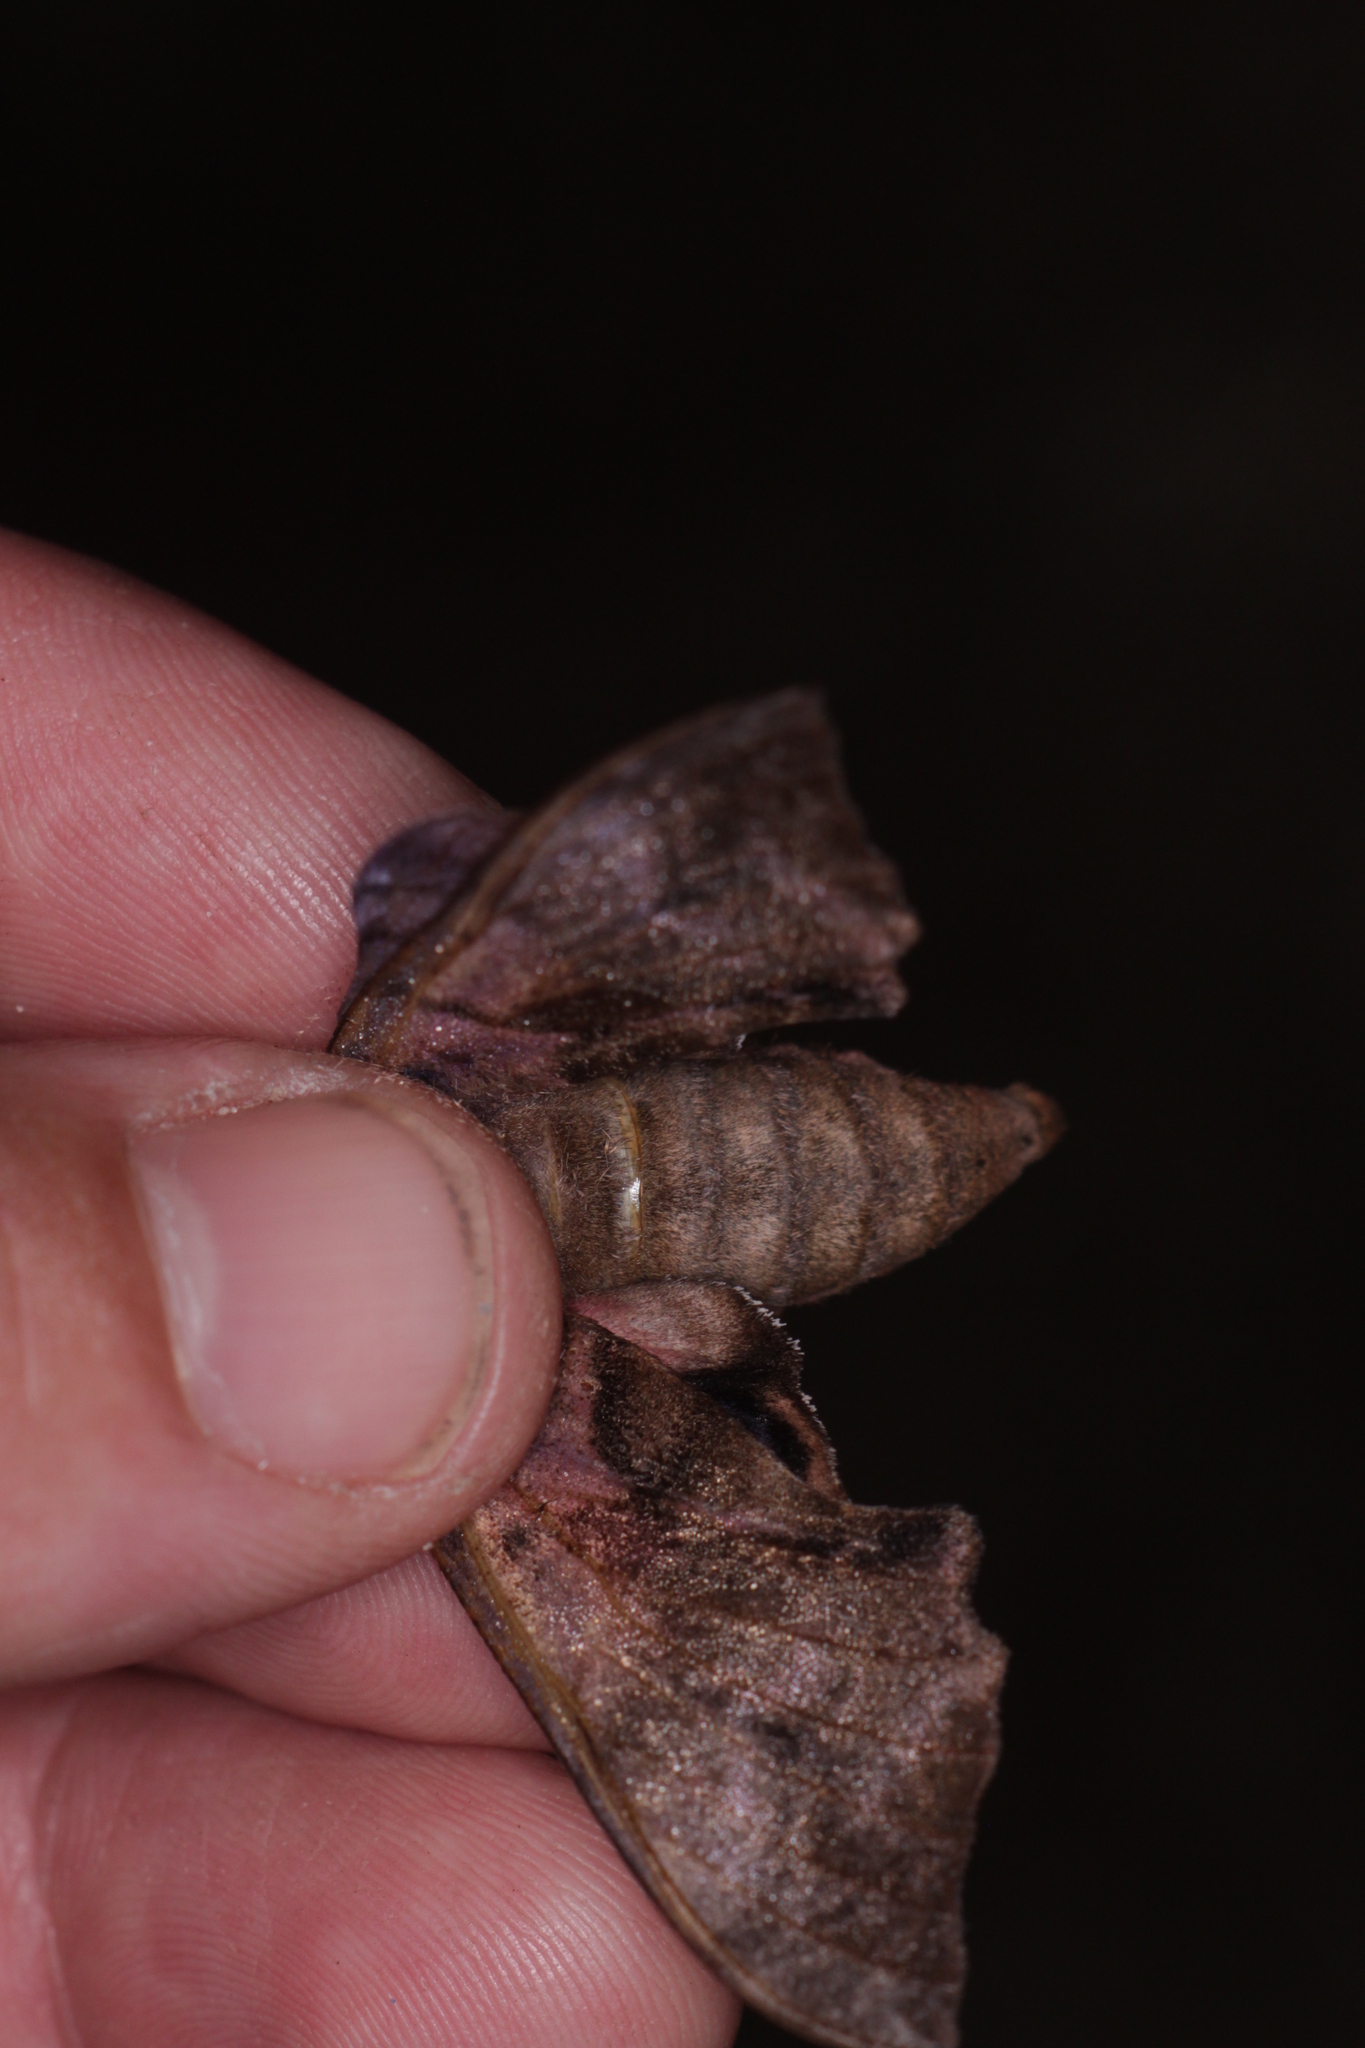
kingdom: Animalia
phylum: Arthropoda
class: Insecta
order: Lepidoptera
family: Sphingidae
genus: Smerinthus
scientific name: Smerinthus ocellata
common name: Eyed hawk-moth
